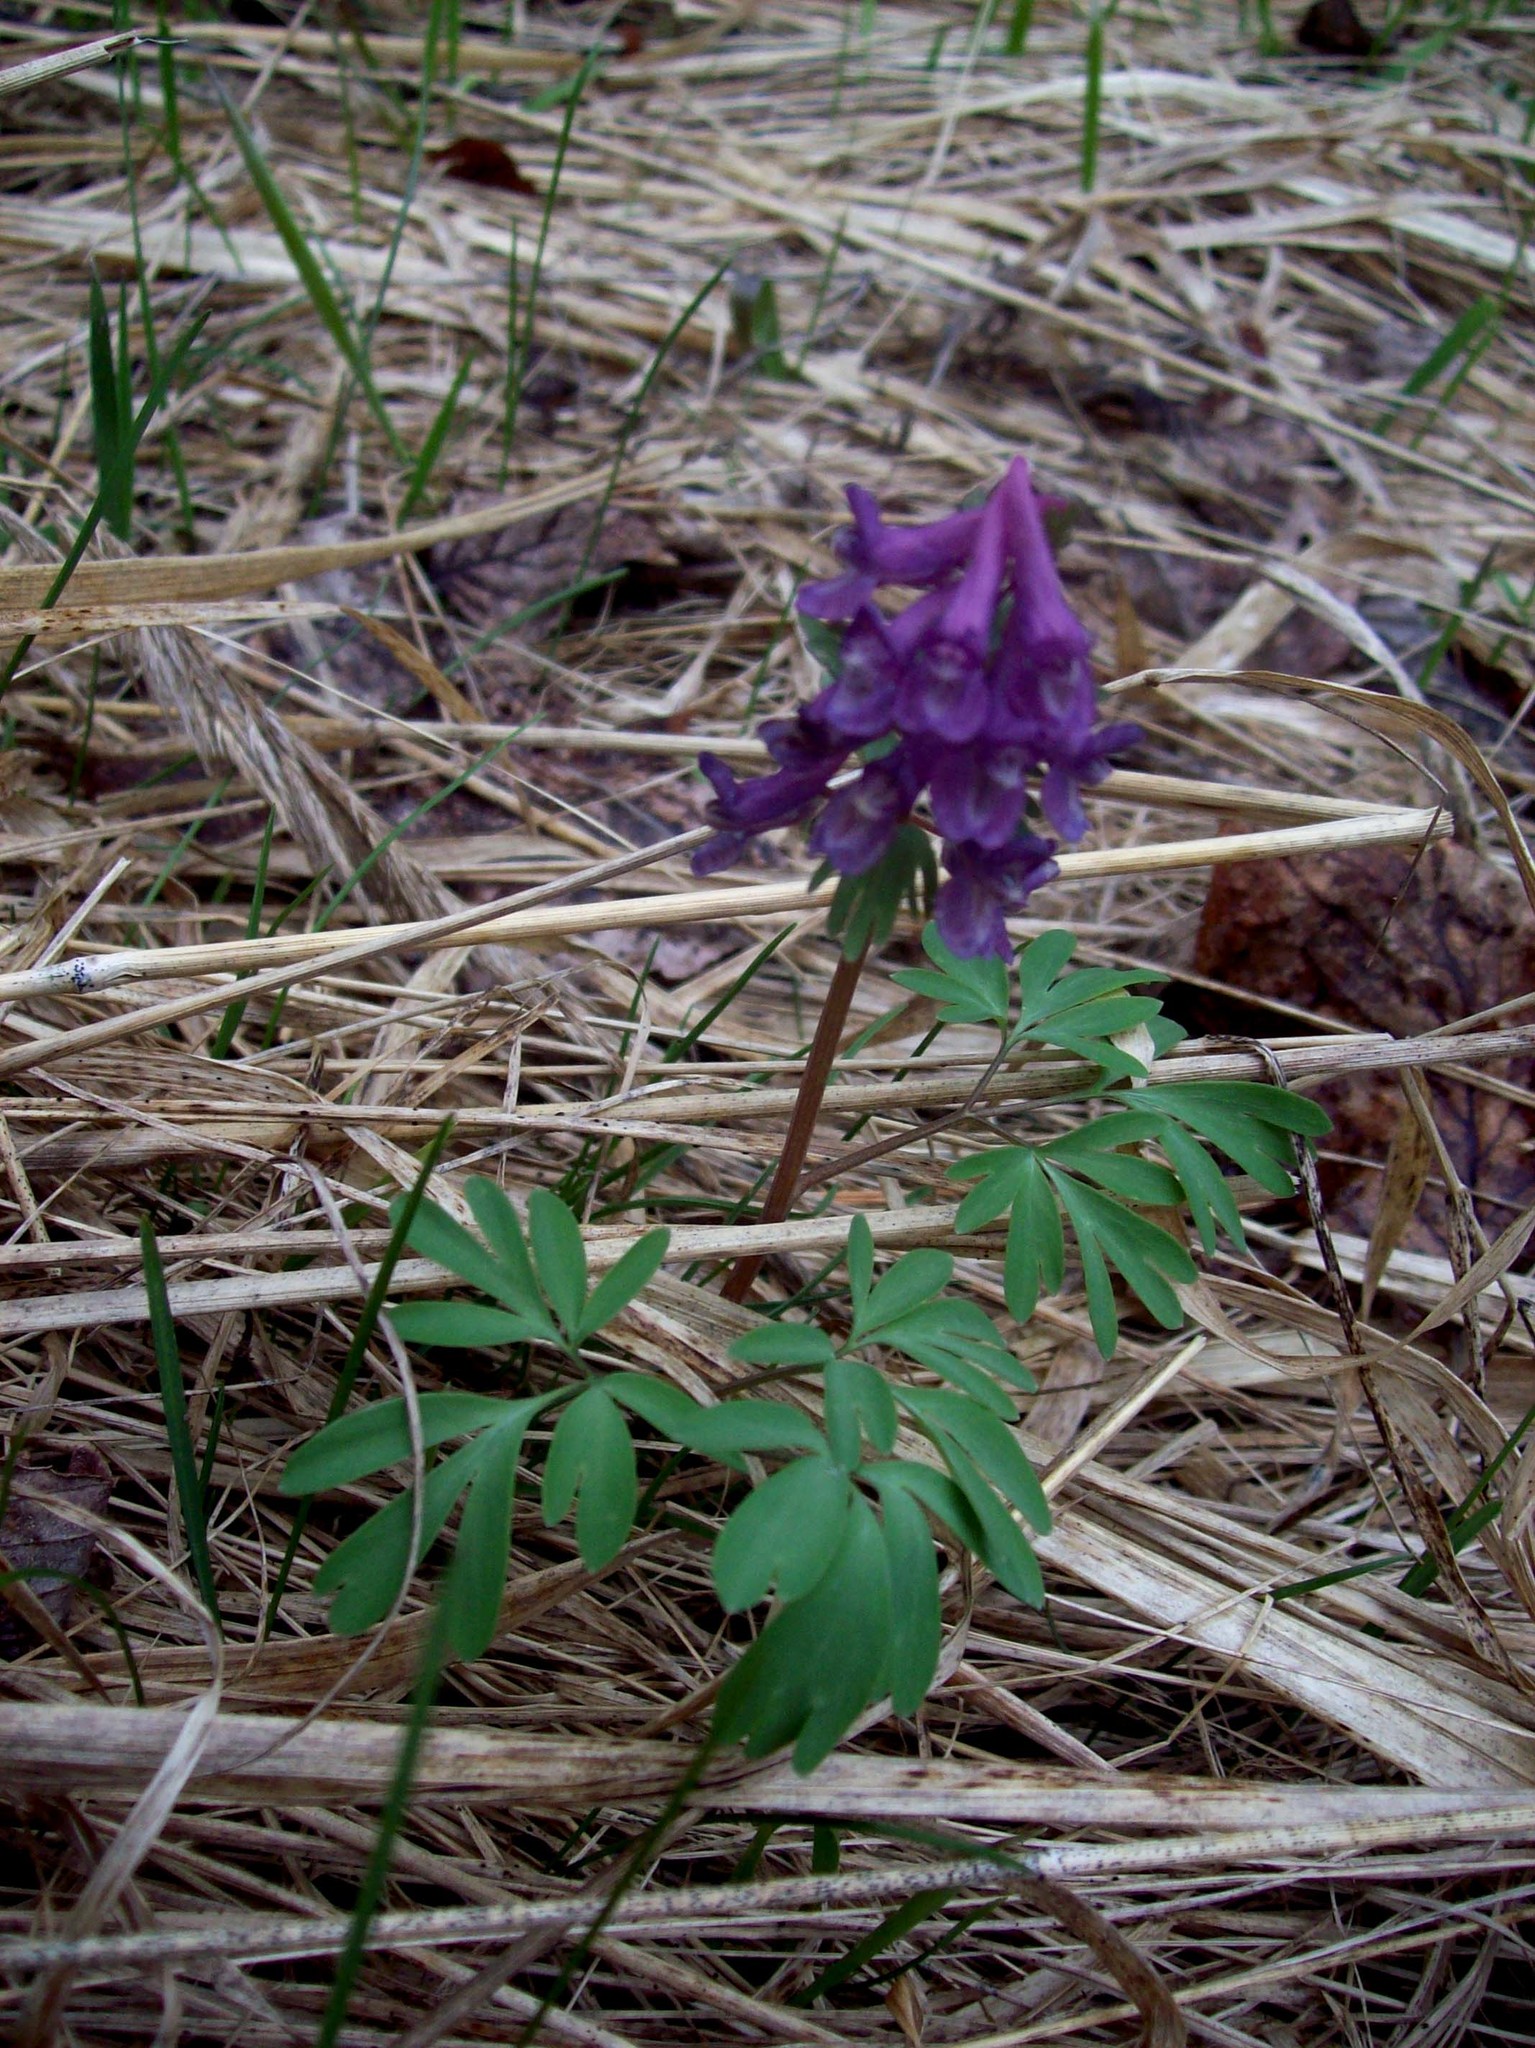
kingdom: Plantae
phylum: Tracheophyta
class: Magnoliopsida
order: Ranunculales
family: Papaveraceae
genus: Corydalis
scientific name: Corydalis solida
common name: Bird-in-a-bush
